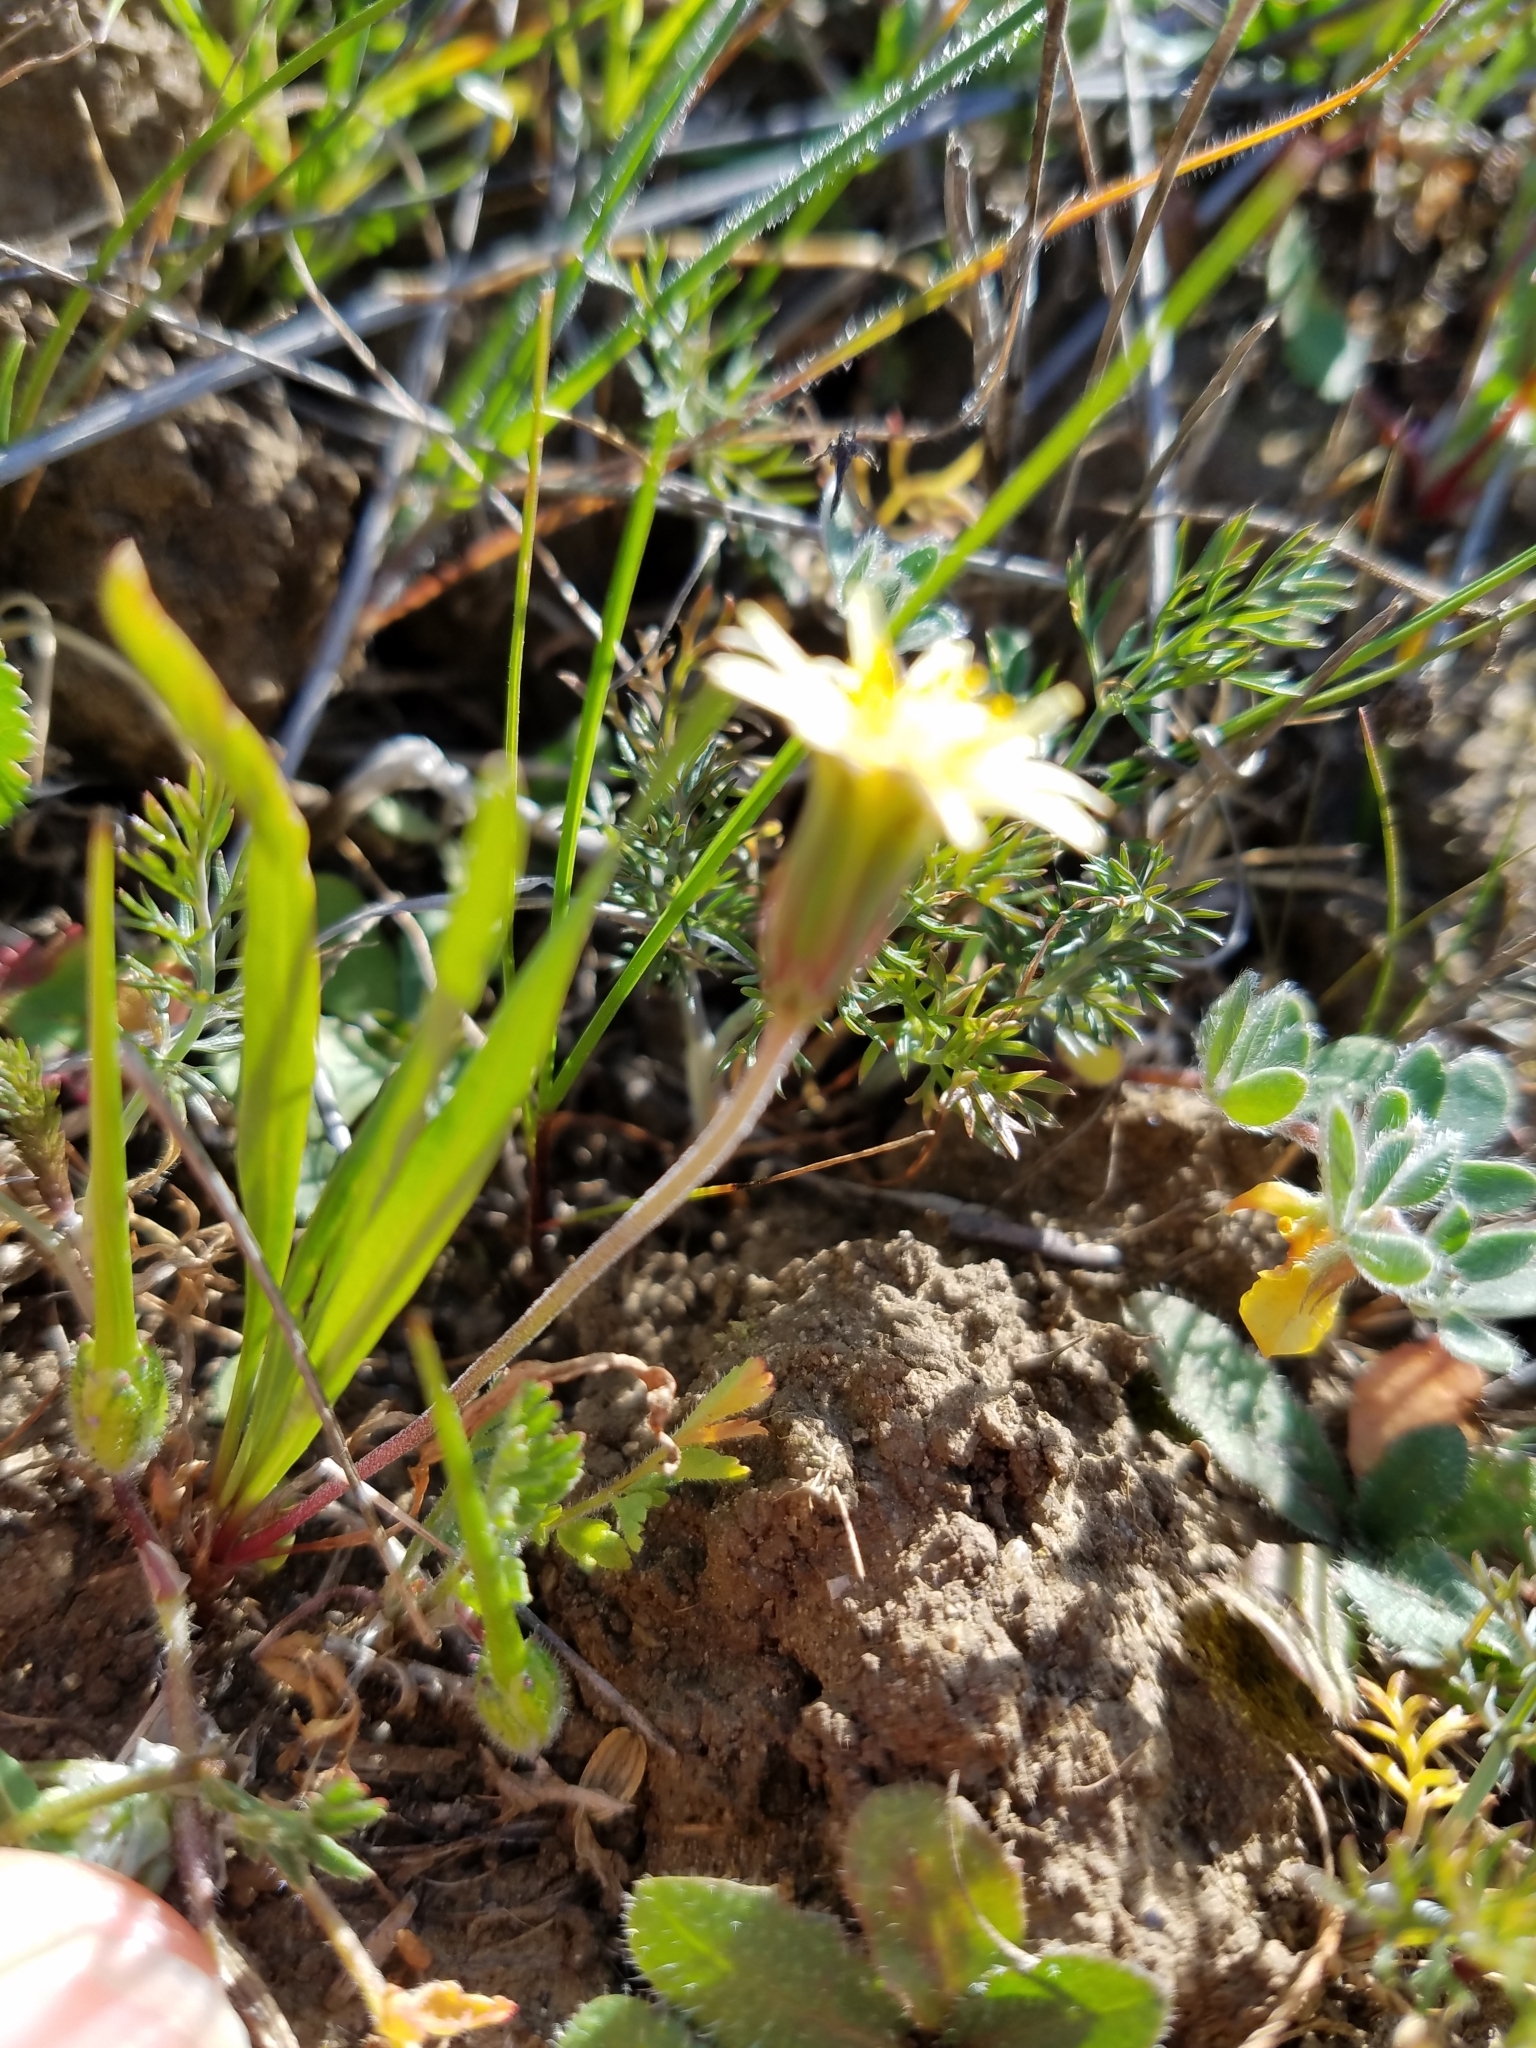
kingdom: Plantae
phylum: Tracheophyta
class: Magnoliopsida
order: Asterales
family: Asteraceae
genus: Microseris
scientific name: Microseris douglasii
